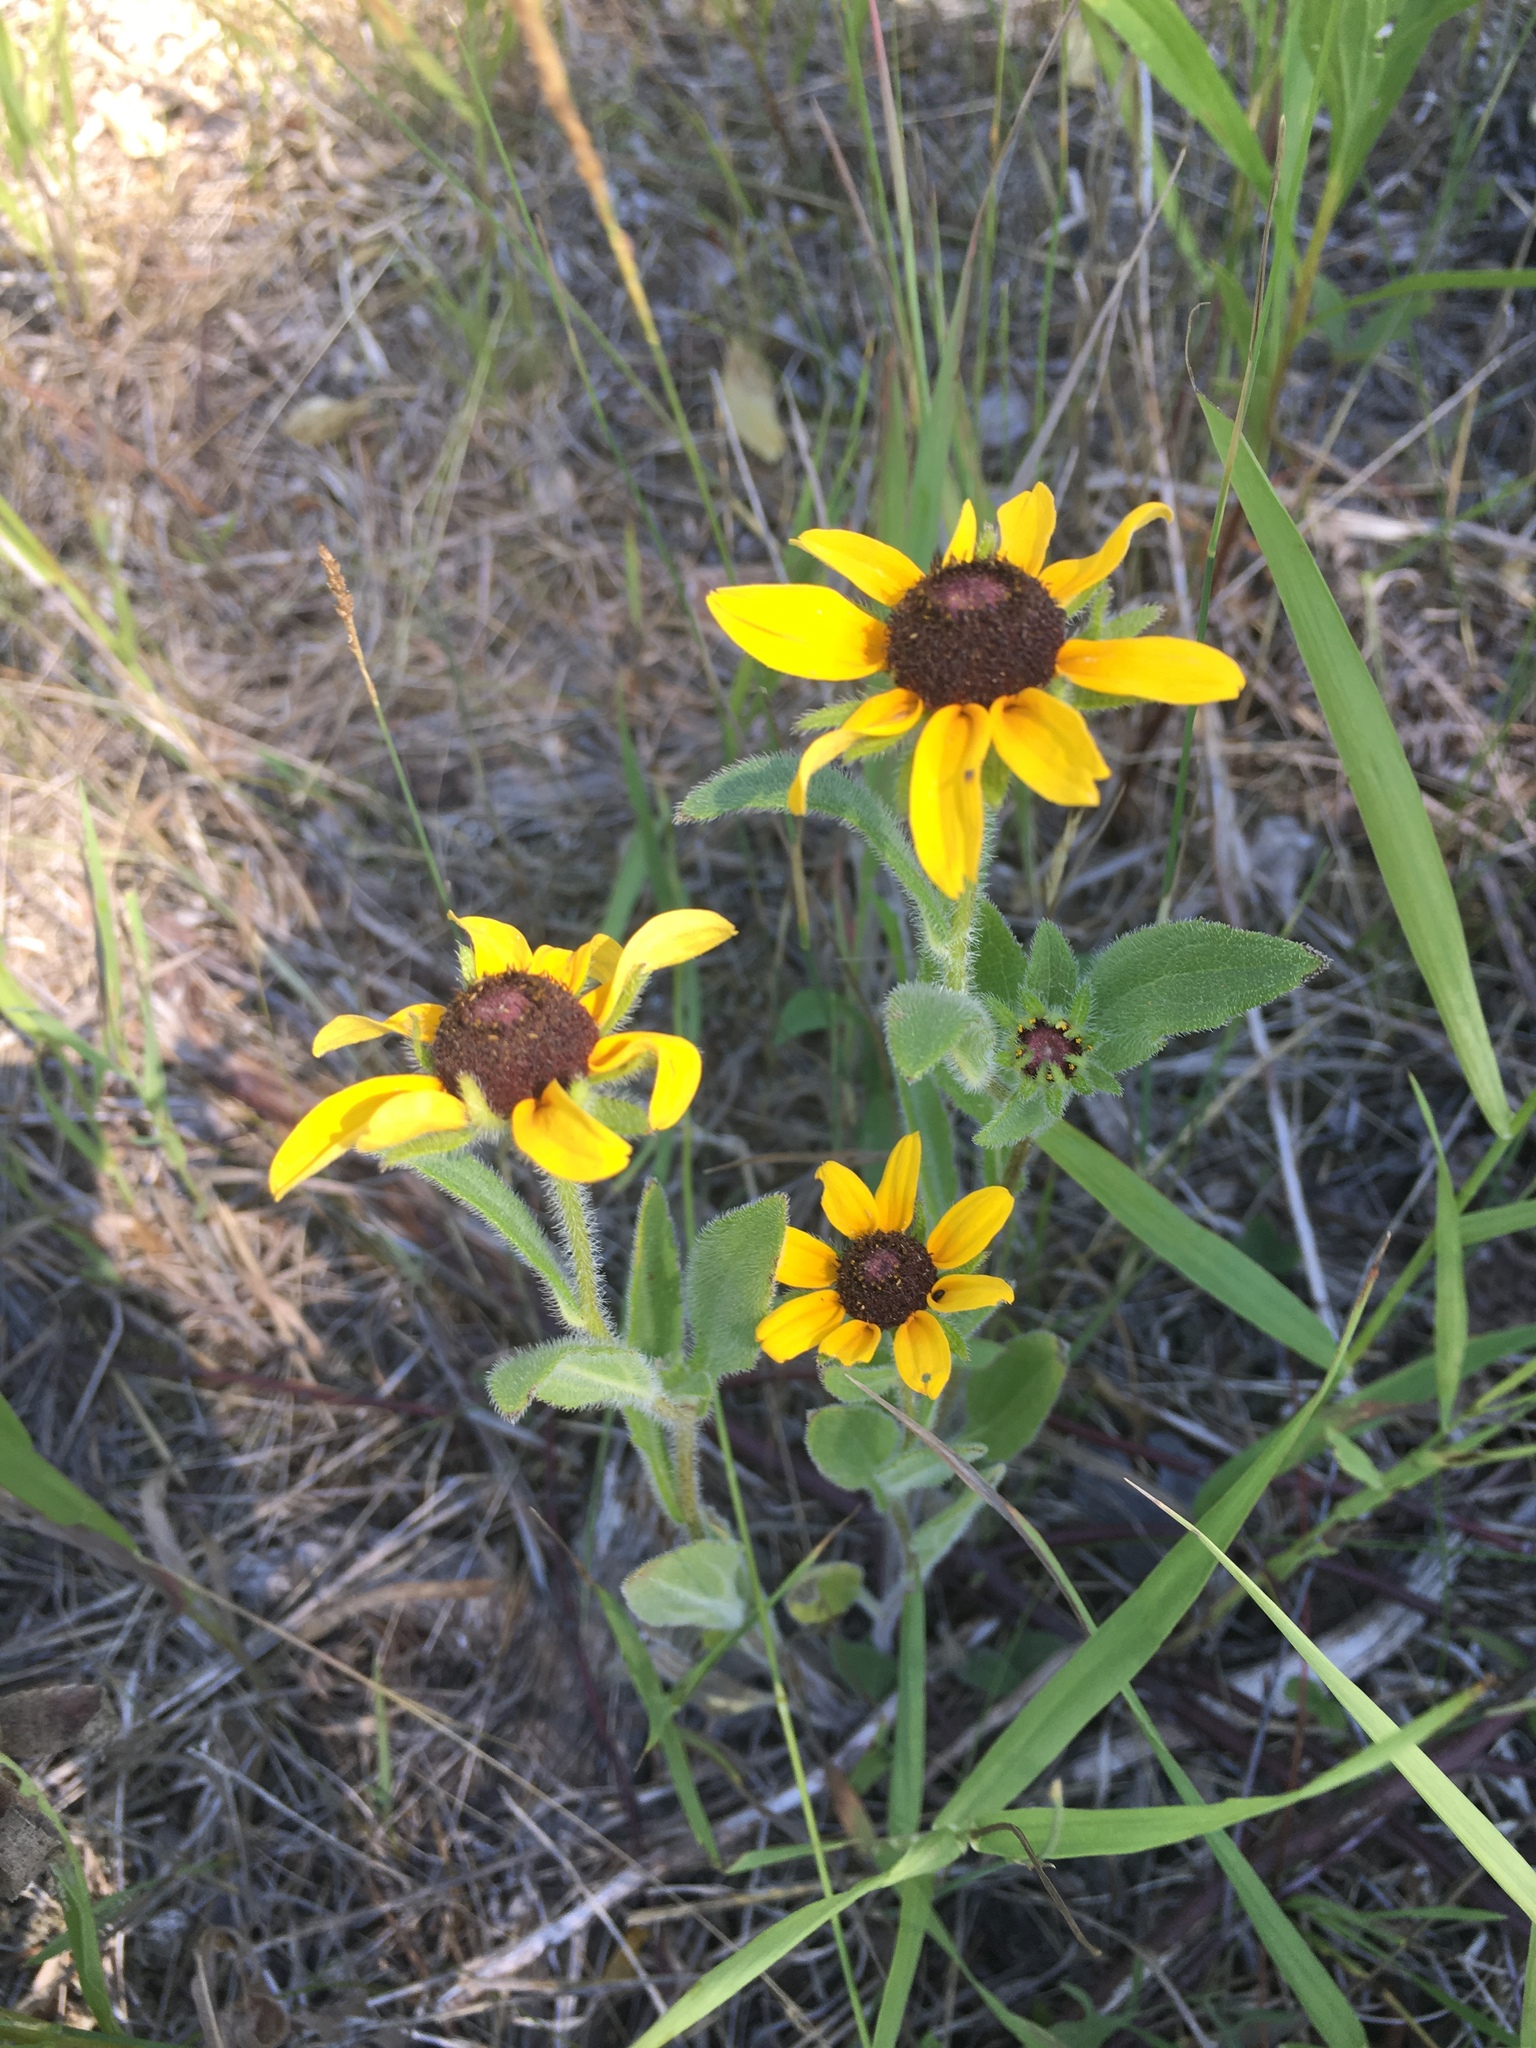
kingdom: Plantae
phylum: Tracheophyta
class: Magnoliopsida
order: Asterales
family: Asteraceae
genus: Rudbeckia
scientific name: Rudbeckia hirta
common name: Black-eyed-susan
